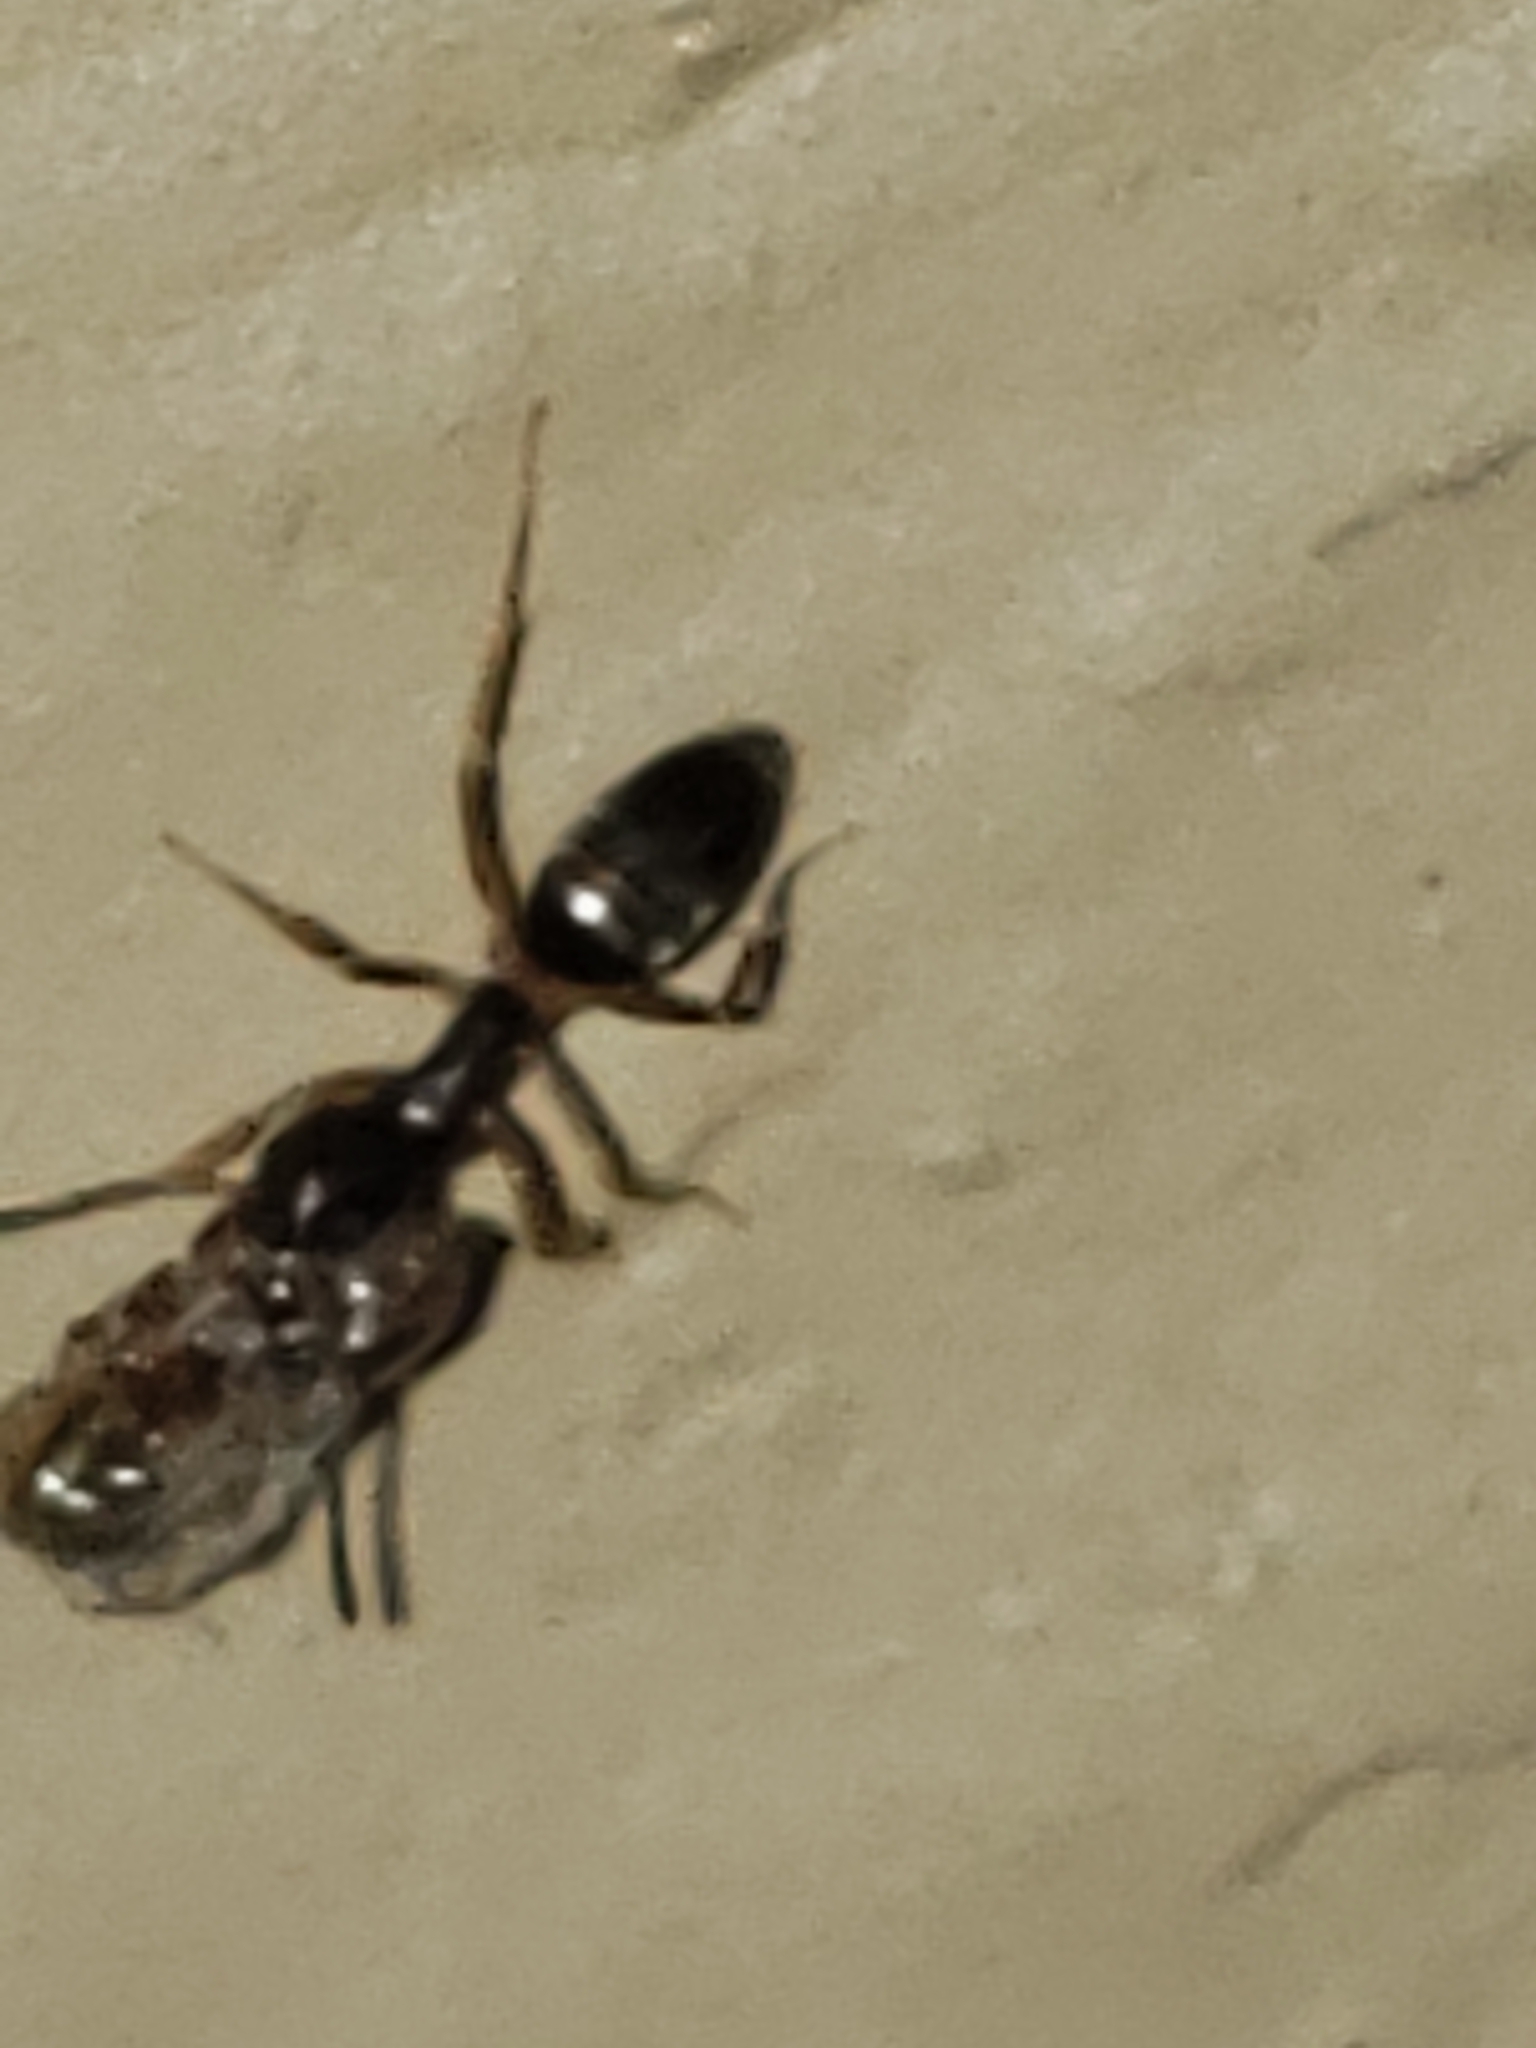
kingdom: Animalia
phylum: Arthropoda
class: Insecta
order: Hymenoptera
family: Formicidae
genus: Tapinoma
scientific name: Tapinoma sessile
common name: Odorous house ant
